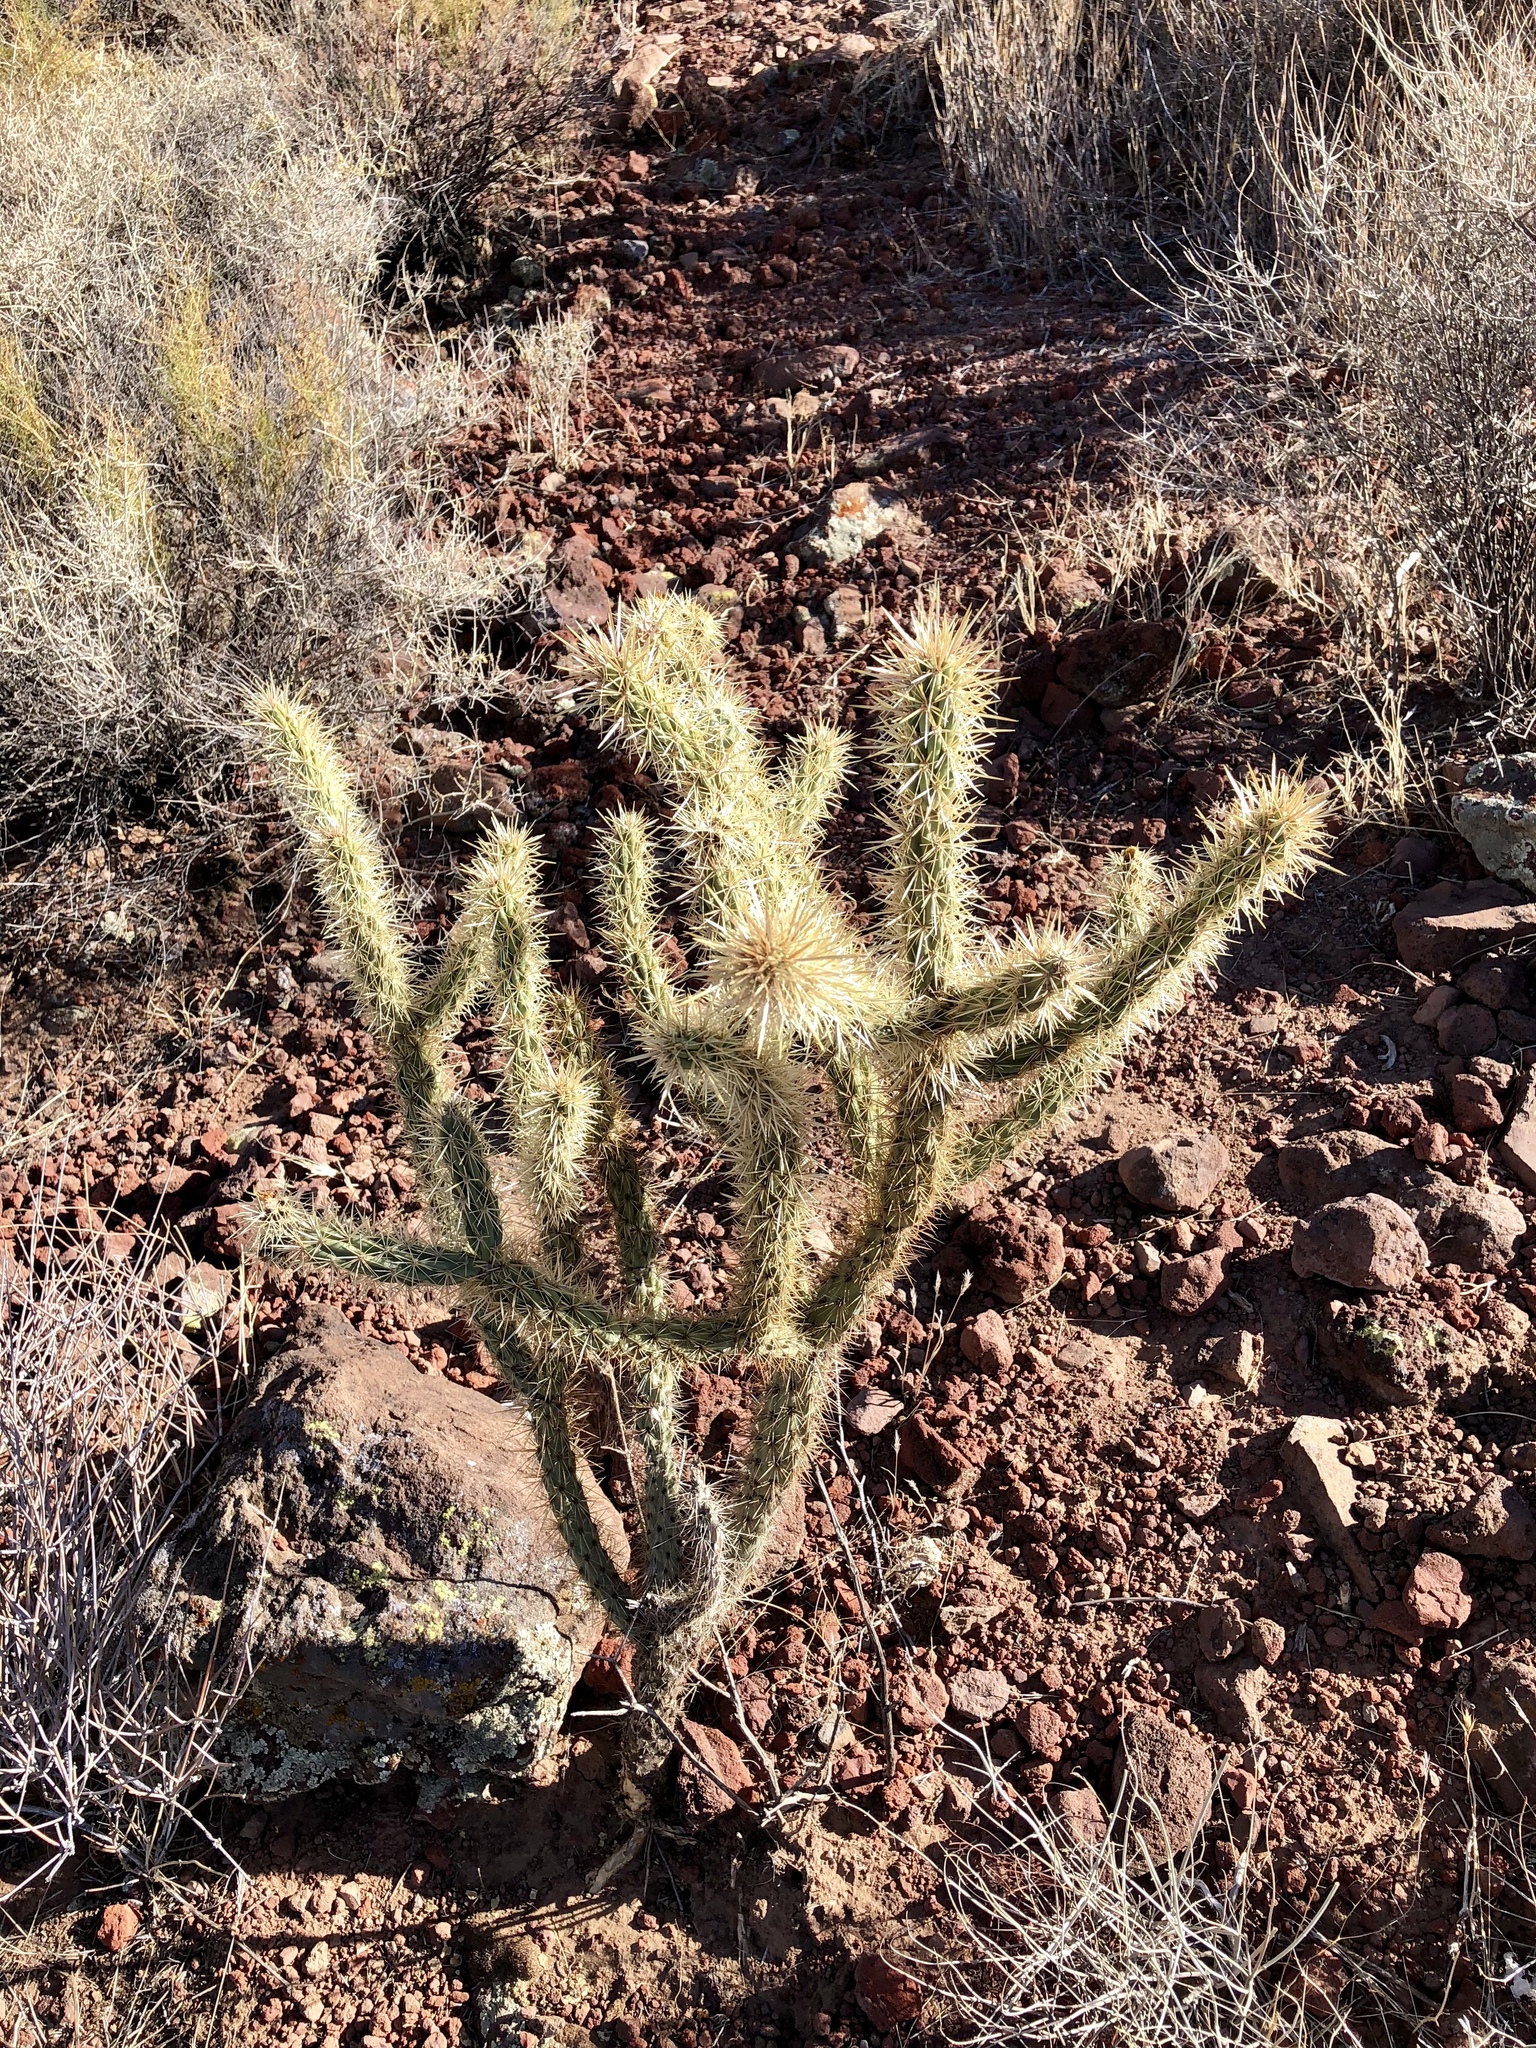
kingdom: Plantae
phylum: Tracheophyta
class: Magnoliopsida
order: Caryophyllales
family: Cactaceae
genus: Cylindropuntia
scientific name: Cylindropuntia acanthocarpa
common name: Buckhorn cholla
